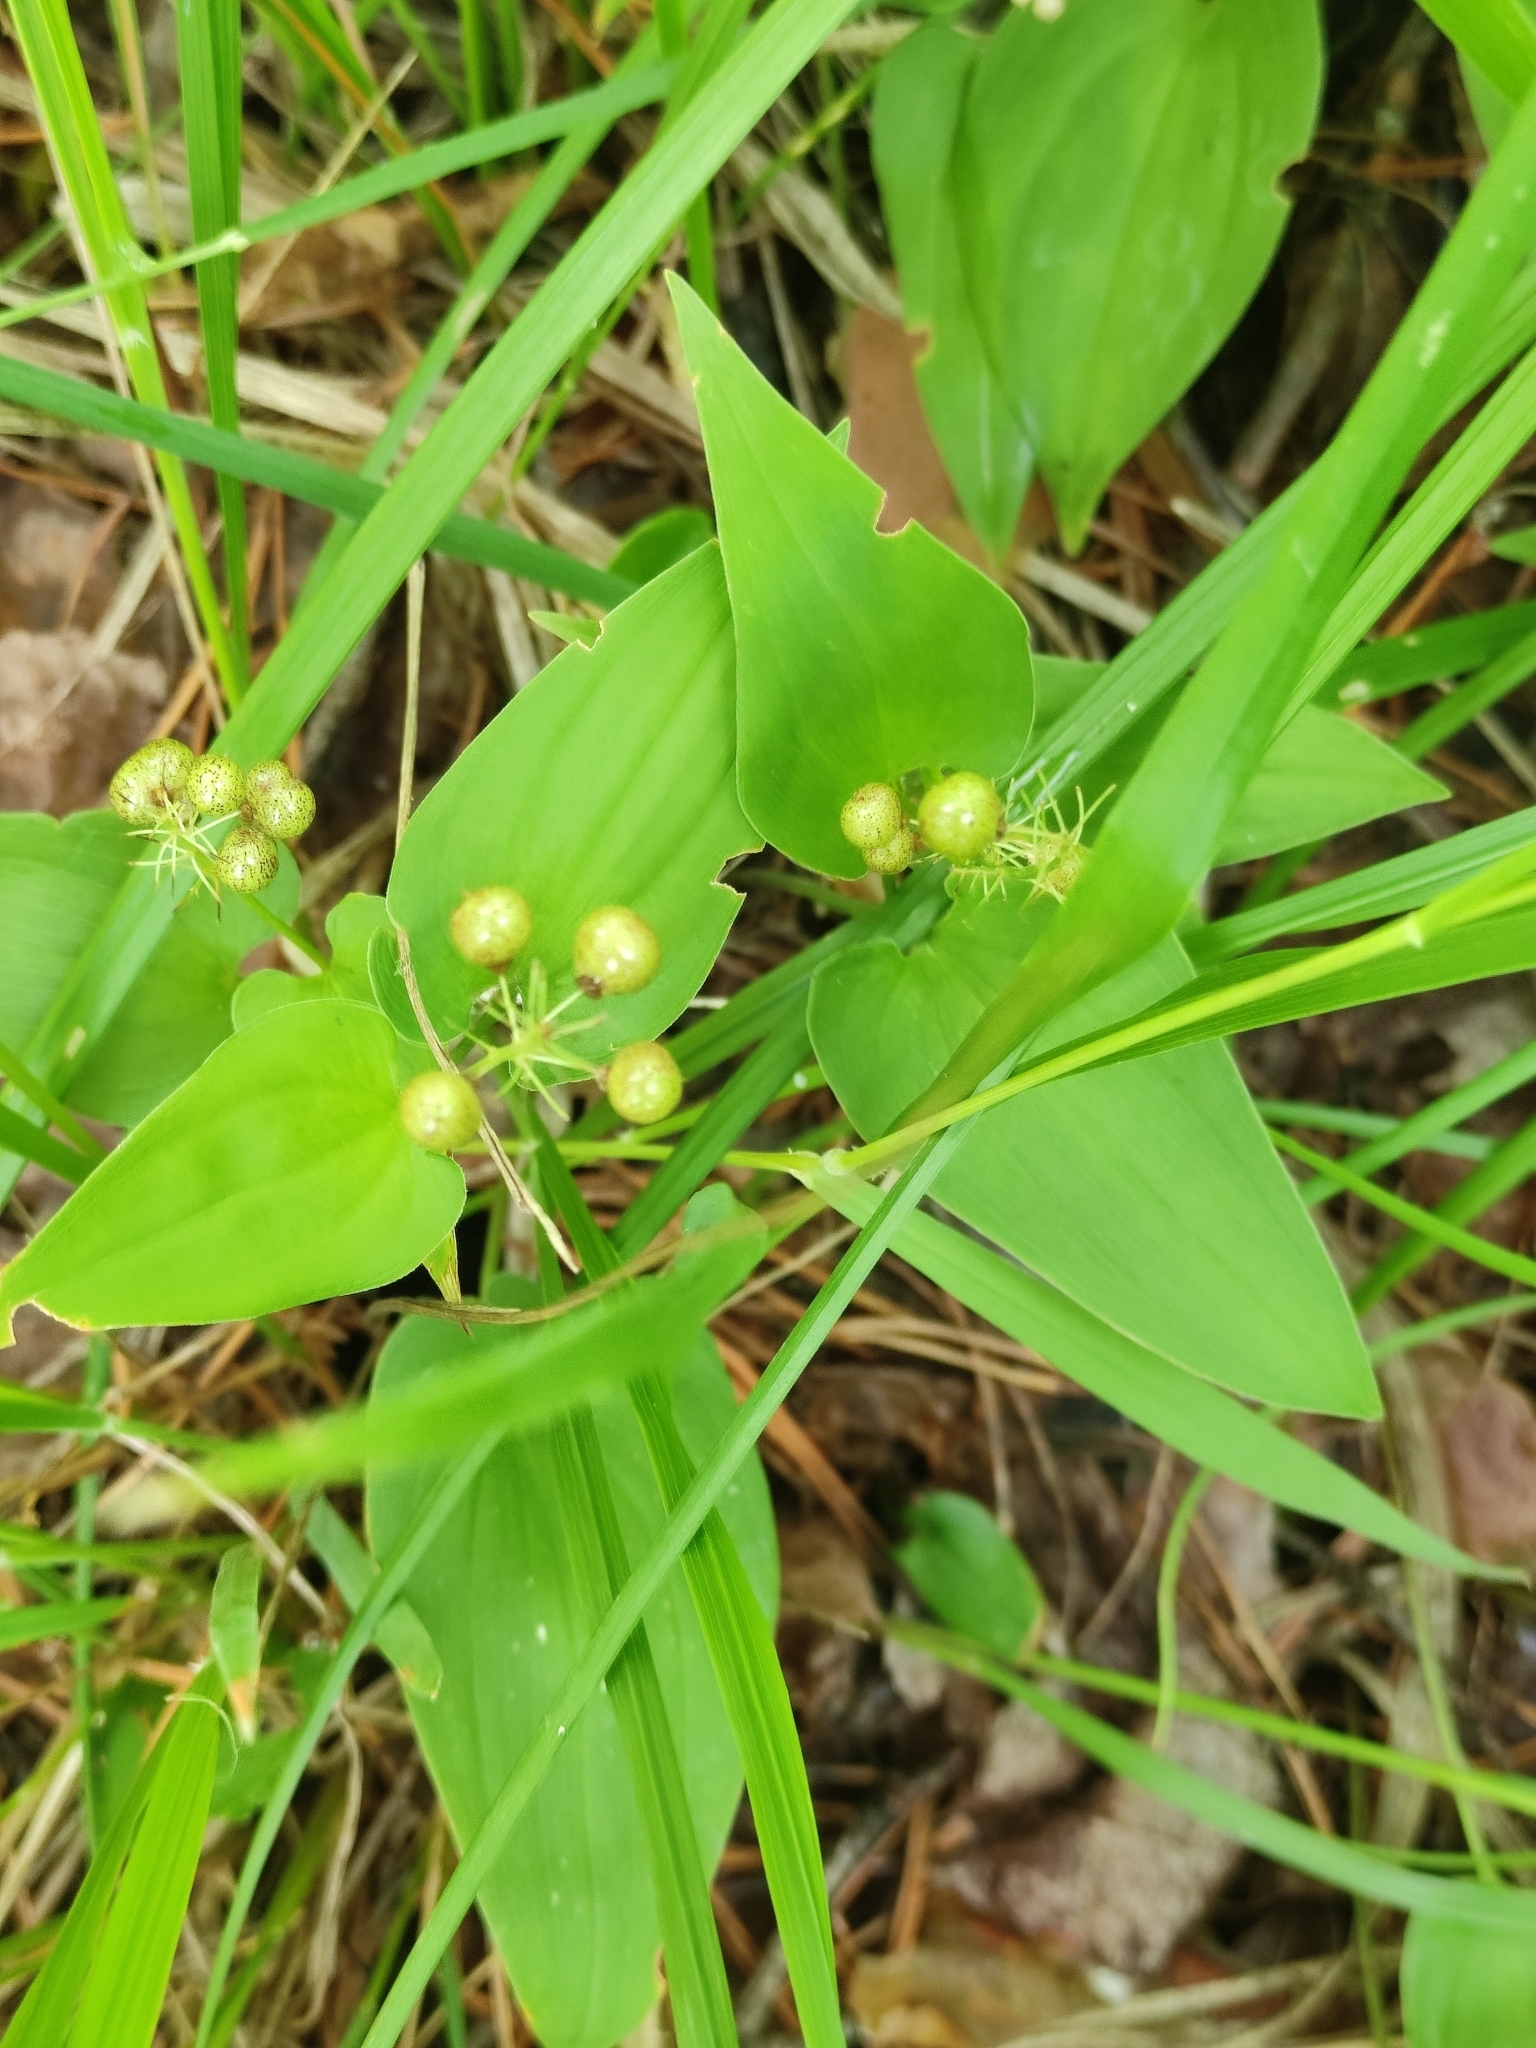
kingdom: Plantae
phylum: Tracheophyta
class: Liliopsida
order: Asparagales
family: Asparagaceae
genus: Maianthemum
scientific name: Maianthemum bifolium
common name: May lily
